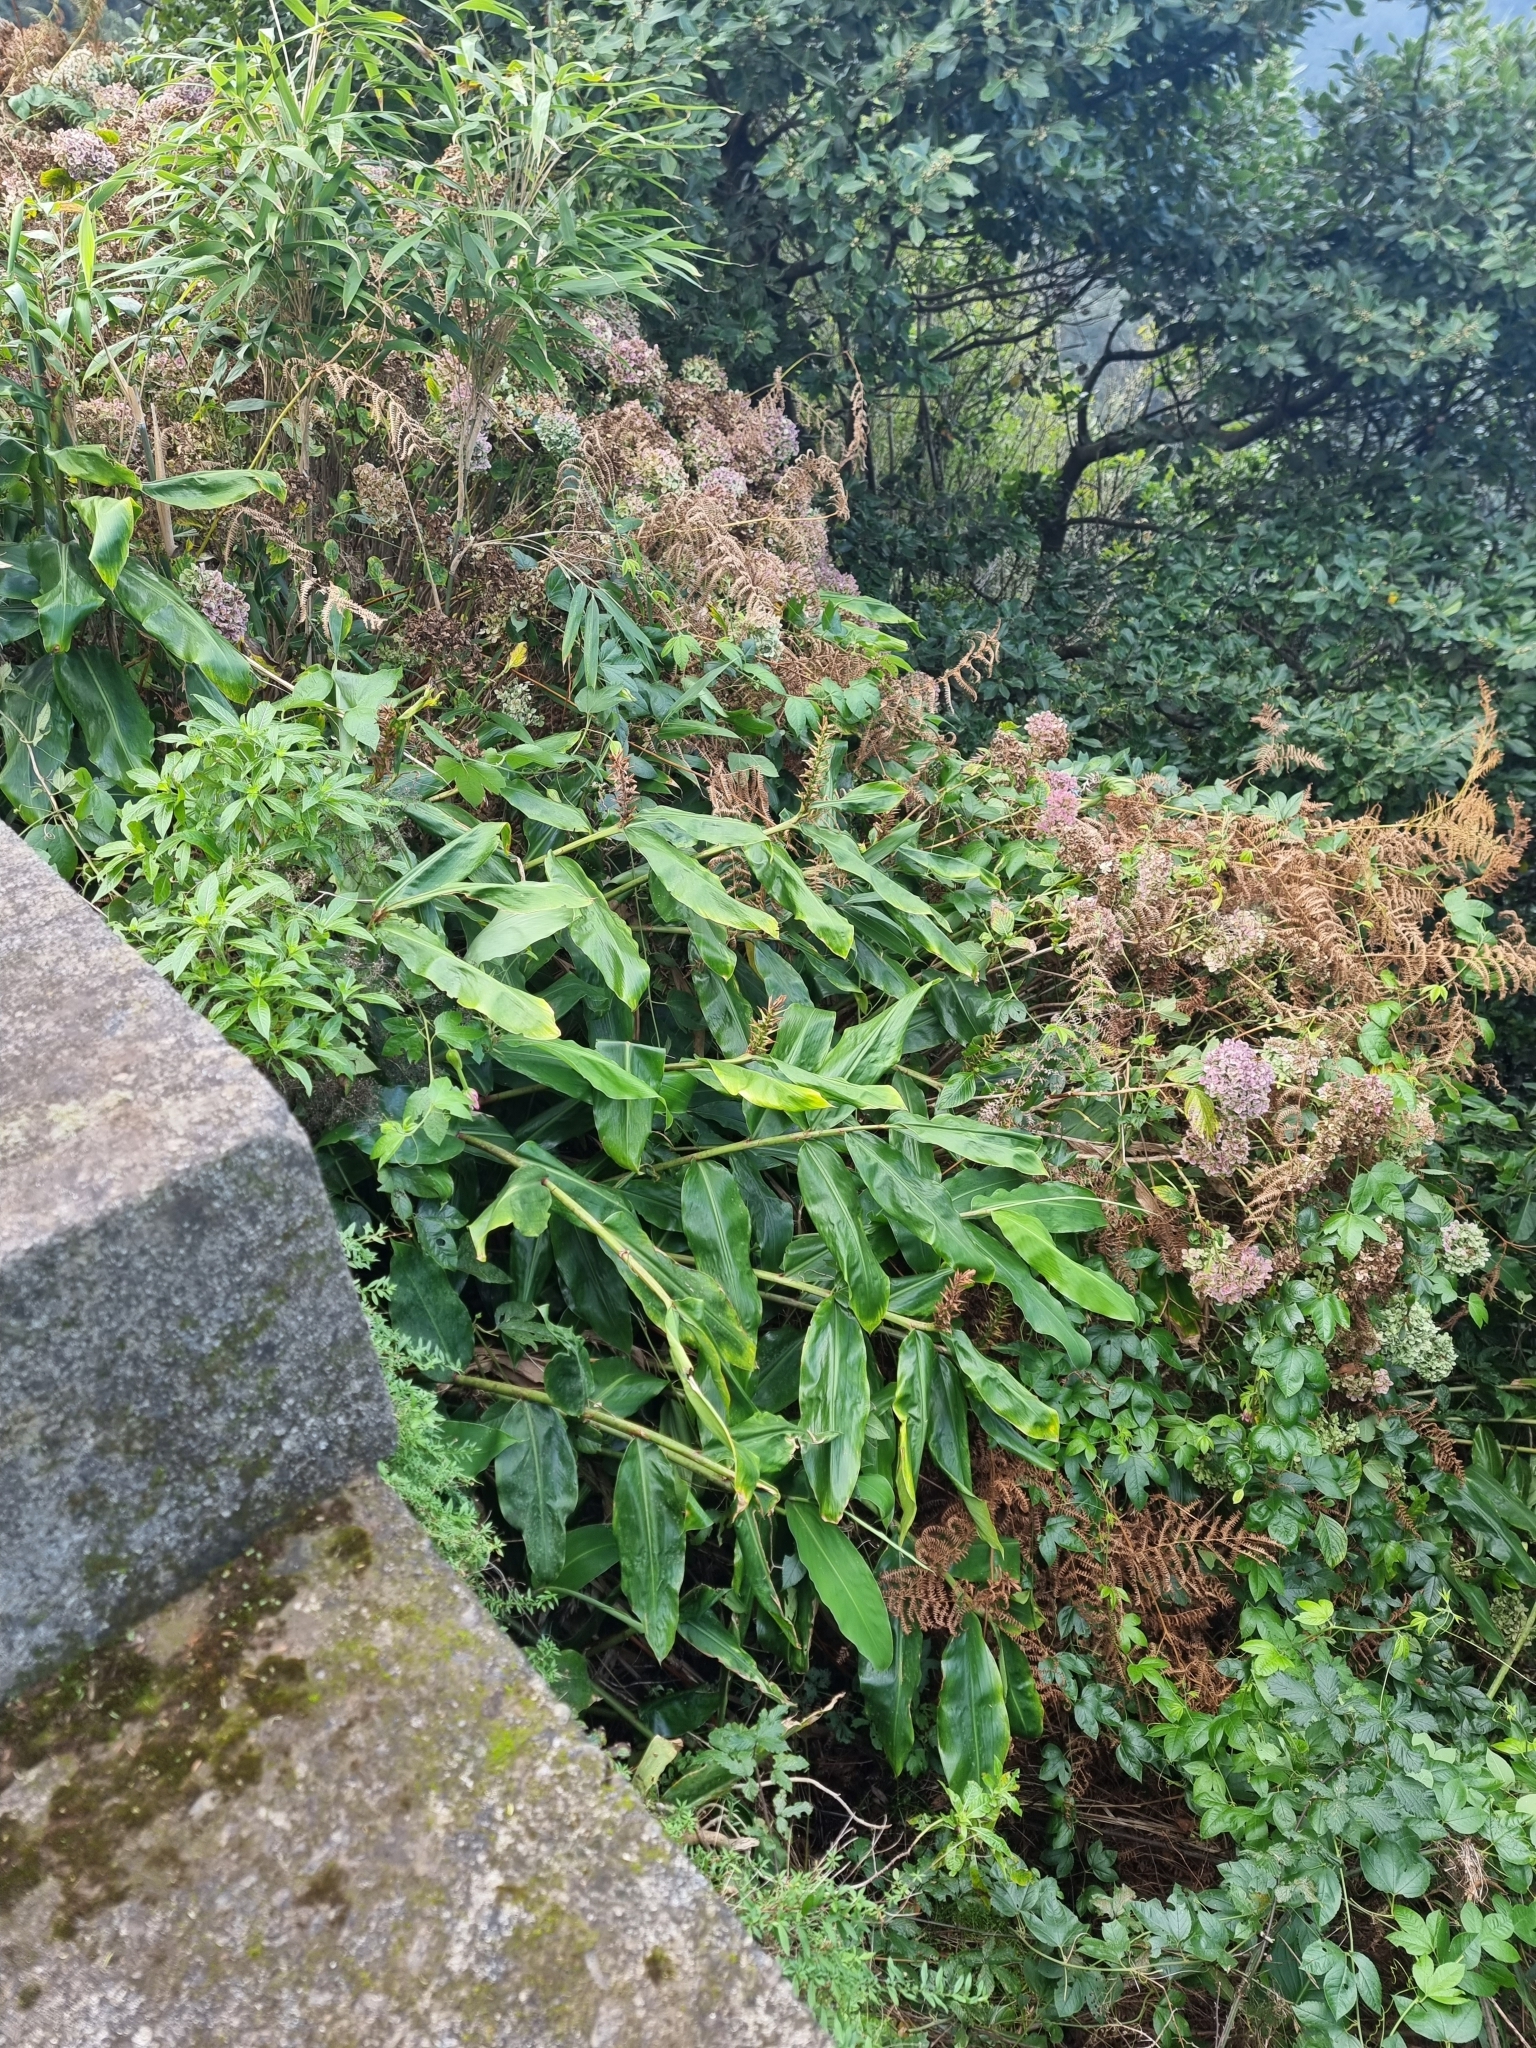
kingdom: Plantae
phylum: Tracheophyta
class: Liliopsida
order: Zingiberales
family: Zingiberaceae
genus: Hedychium
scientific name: Hedychium gardnerianum
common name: Himalayan ginger
